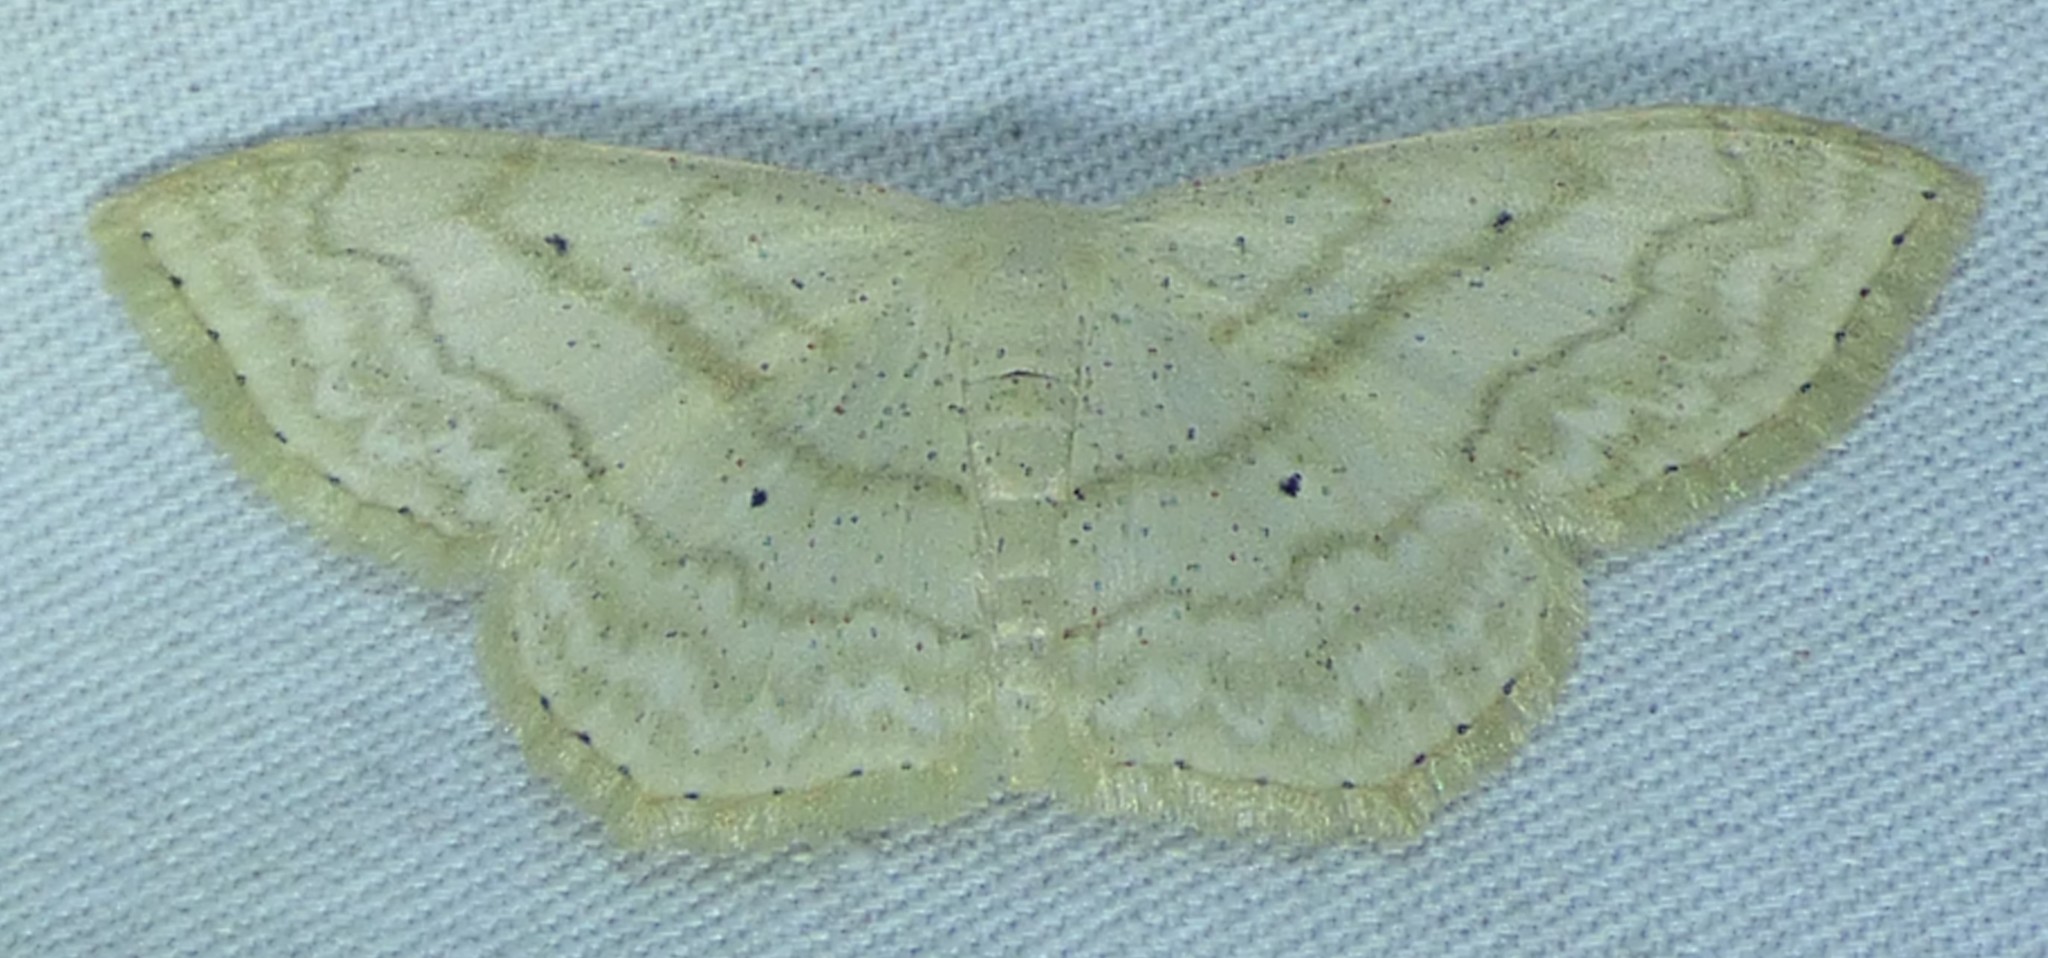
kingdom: Animalia
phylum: Arthropoda
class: Insecta
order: Lepidoptera
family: Geometridae
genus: Scopula
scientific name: Scopula limboundata
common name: Large lace border
